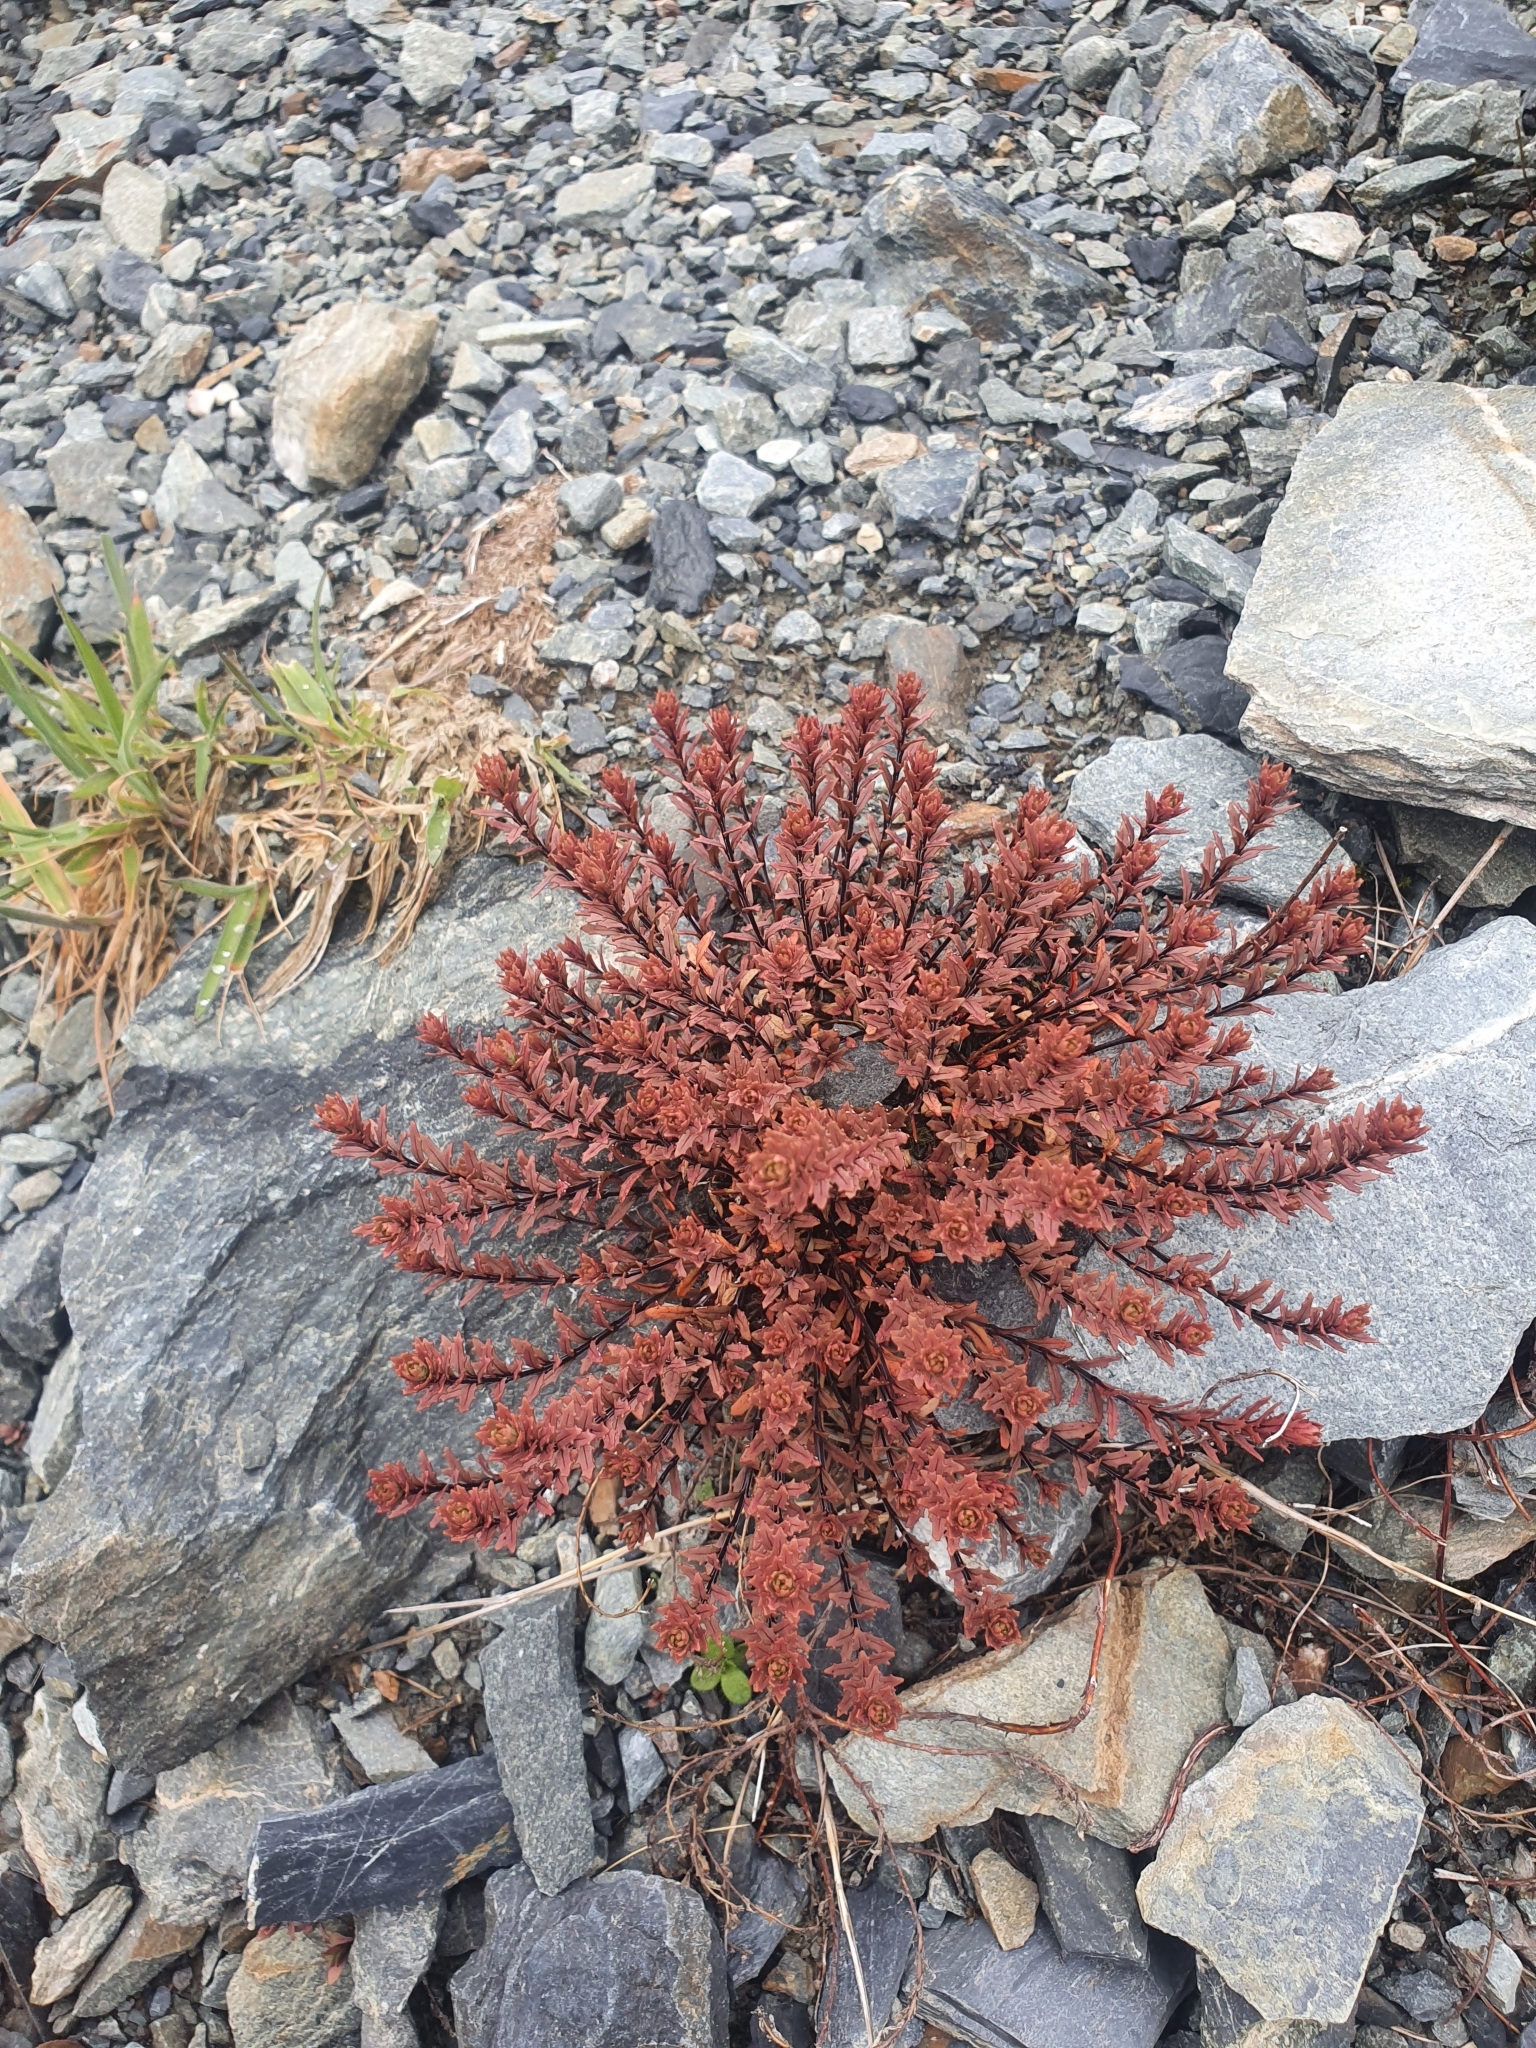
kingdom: Plantae
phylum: Tracheophyta
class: Magnoliopsida
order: Myrtales
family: Onagraceae
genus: Epilobium
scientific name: Epilobium melanocaulon
